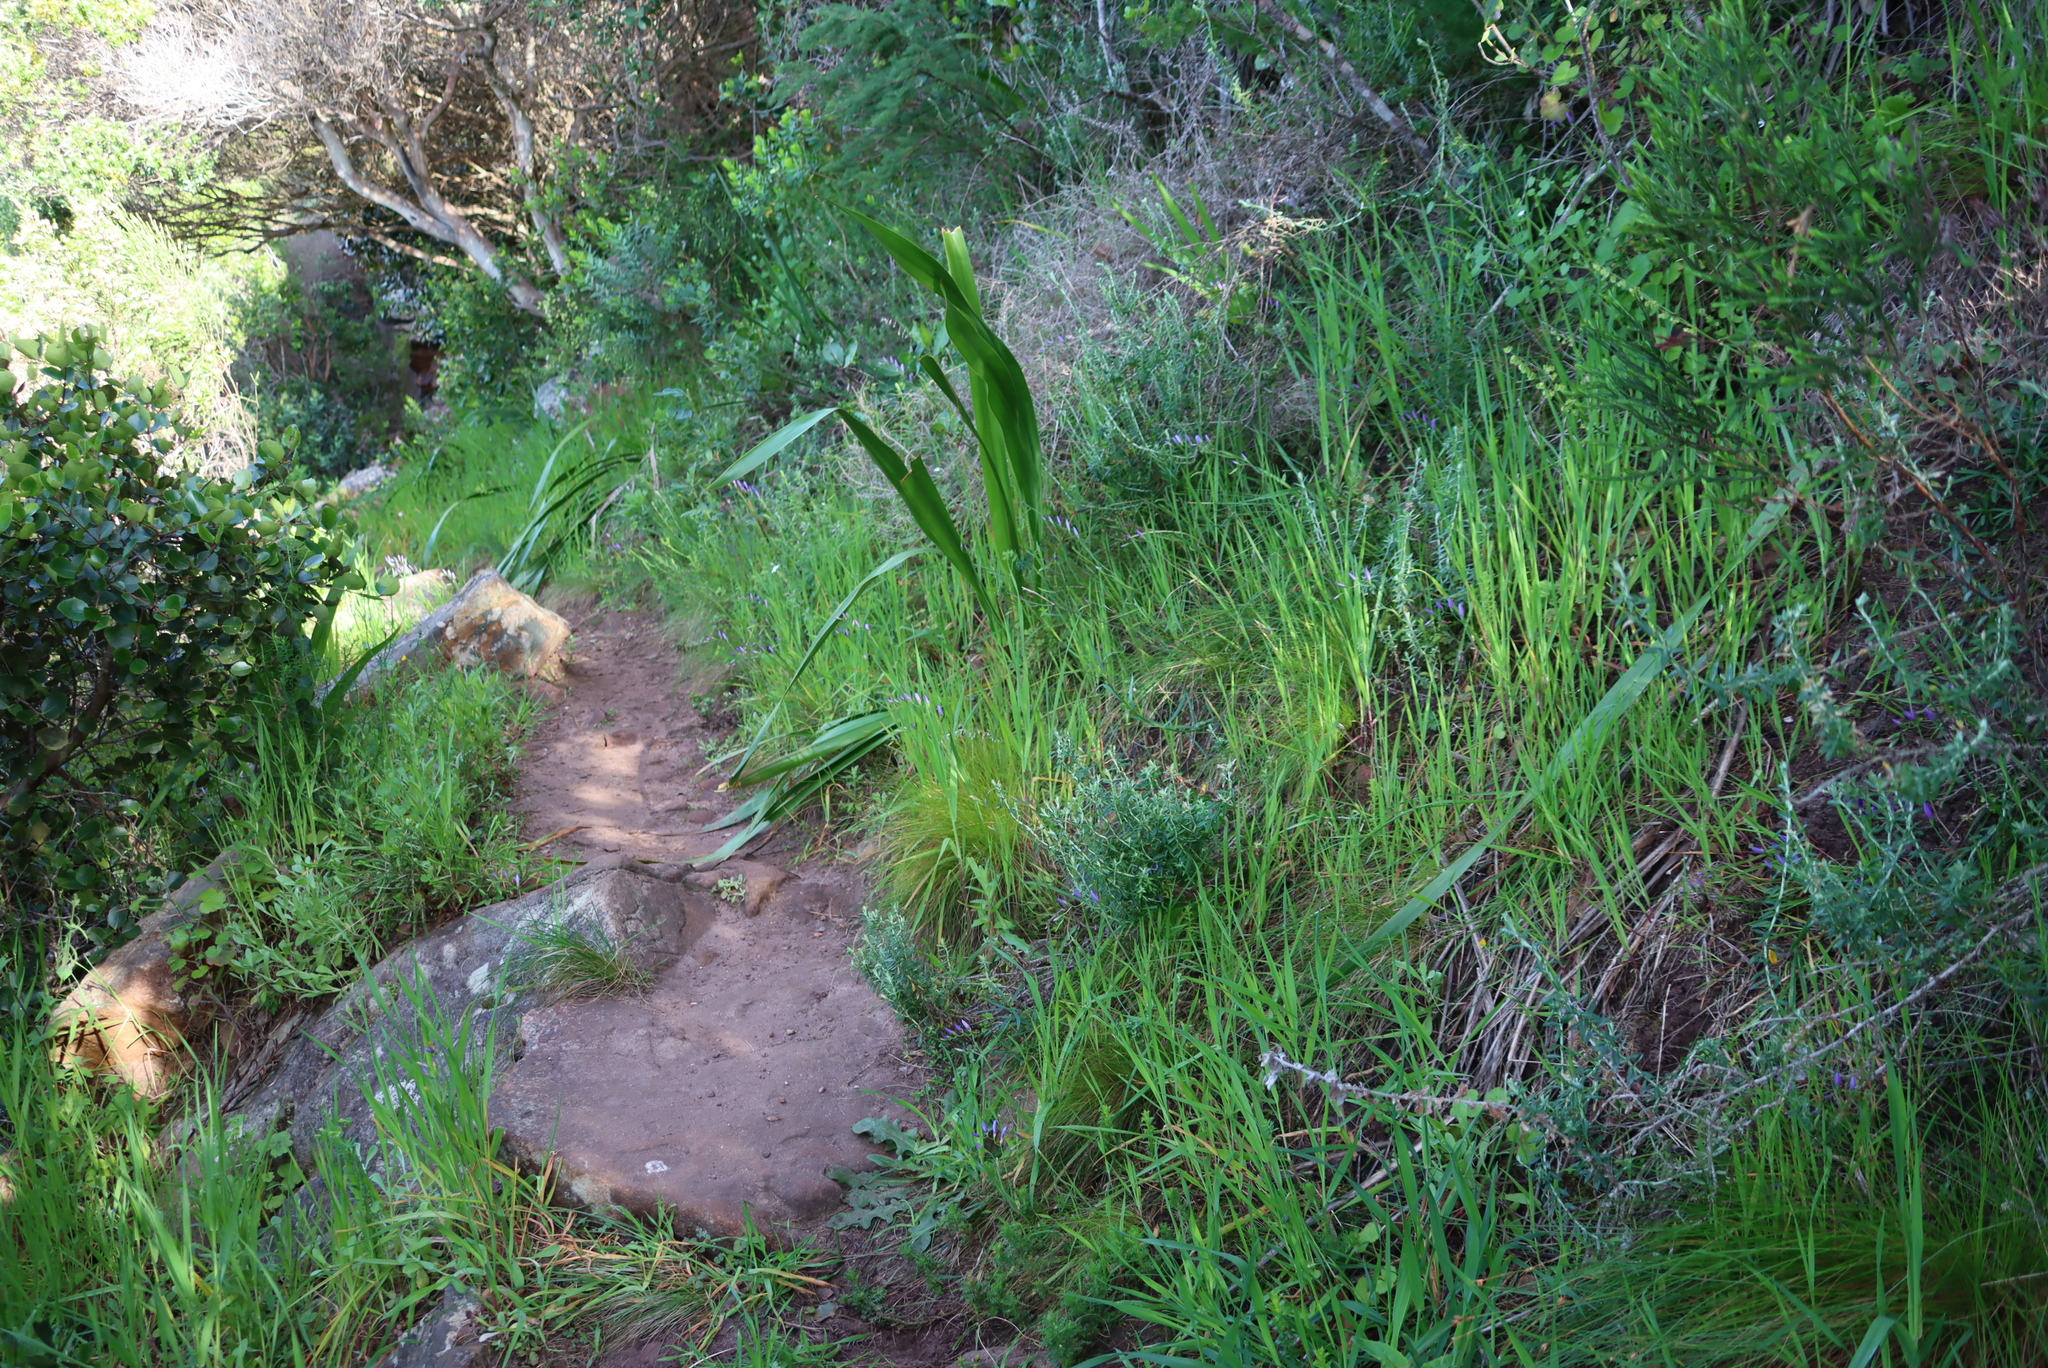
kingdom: Plantae
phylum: Tracheophyta
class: Liliopsida
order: Asparagales
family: Iridaceae
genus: Geissorhiza
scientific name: Geissorhiza aspera
